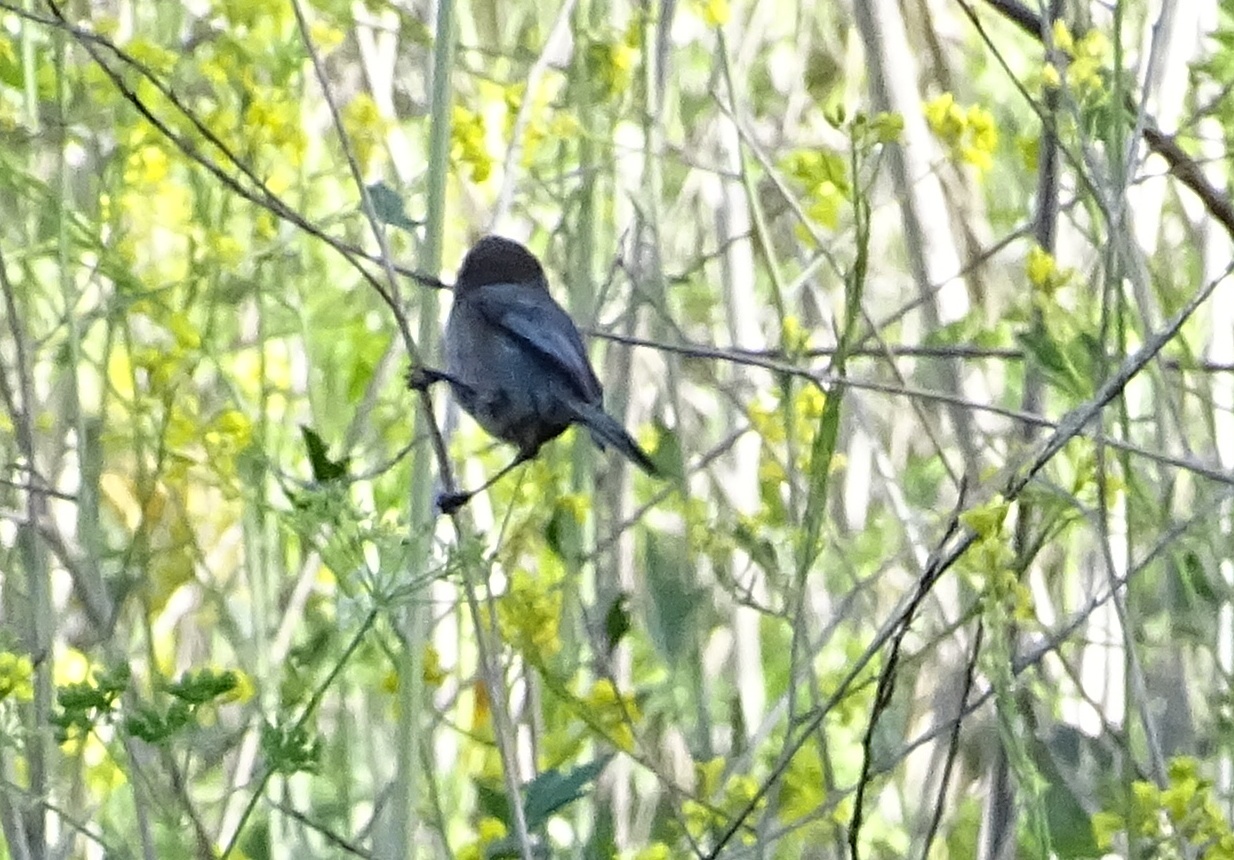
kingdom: Animalia
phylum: Chordata
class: Aves
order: Passeriformes
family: Aegithalidae
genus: Psaltriparus
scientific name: Psaltriparus minimus
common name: American bushtit
